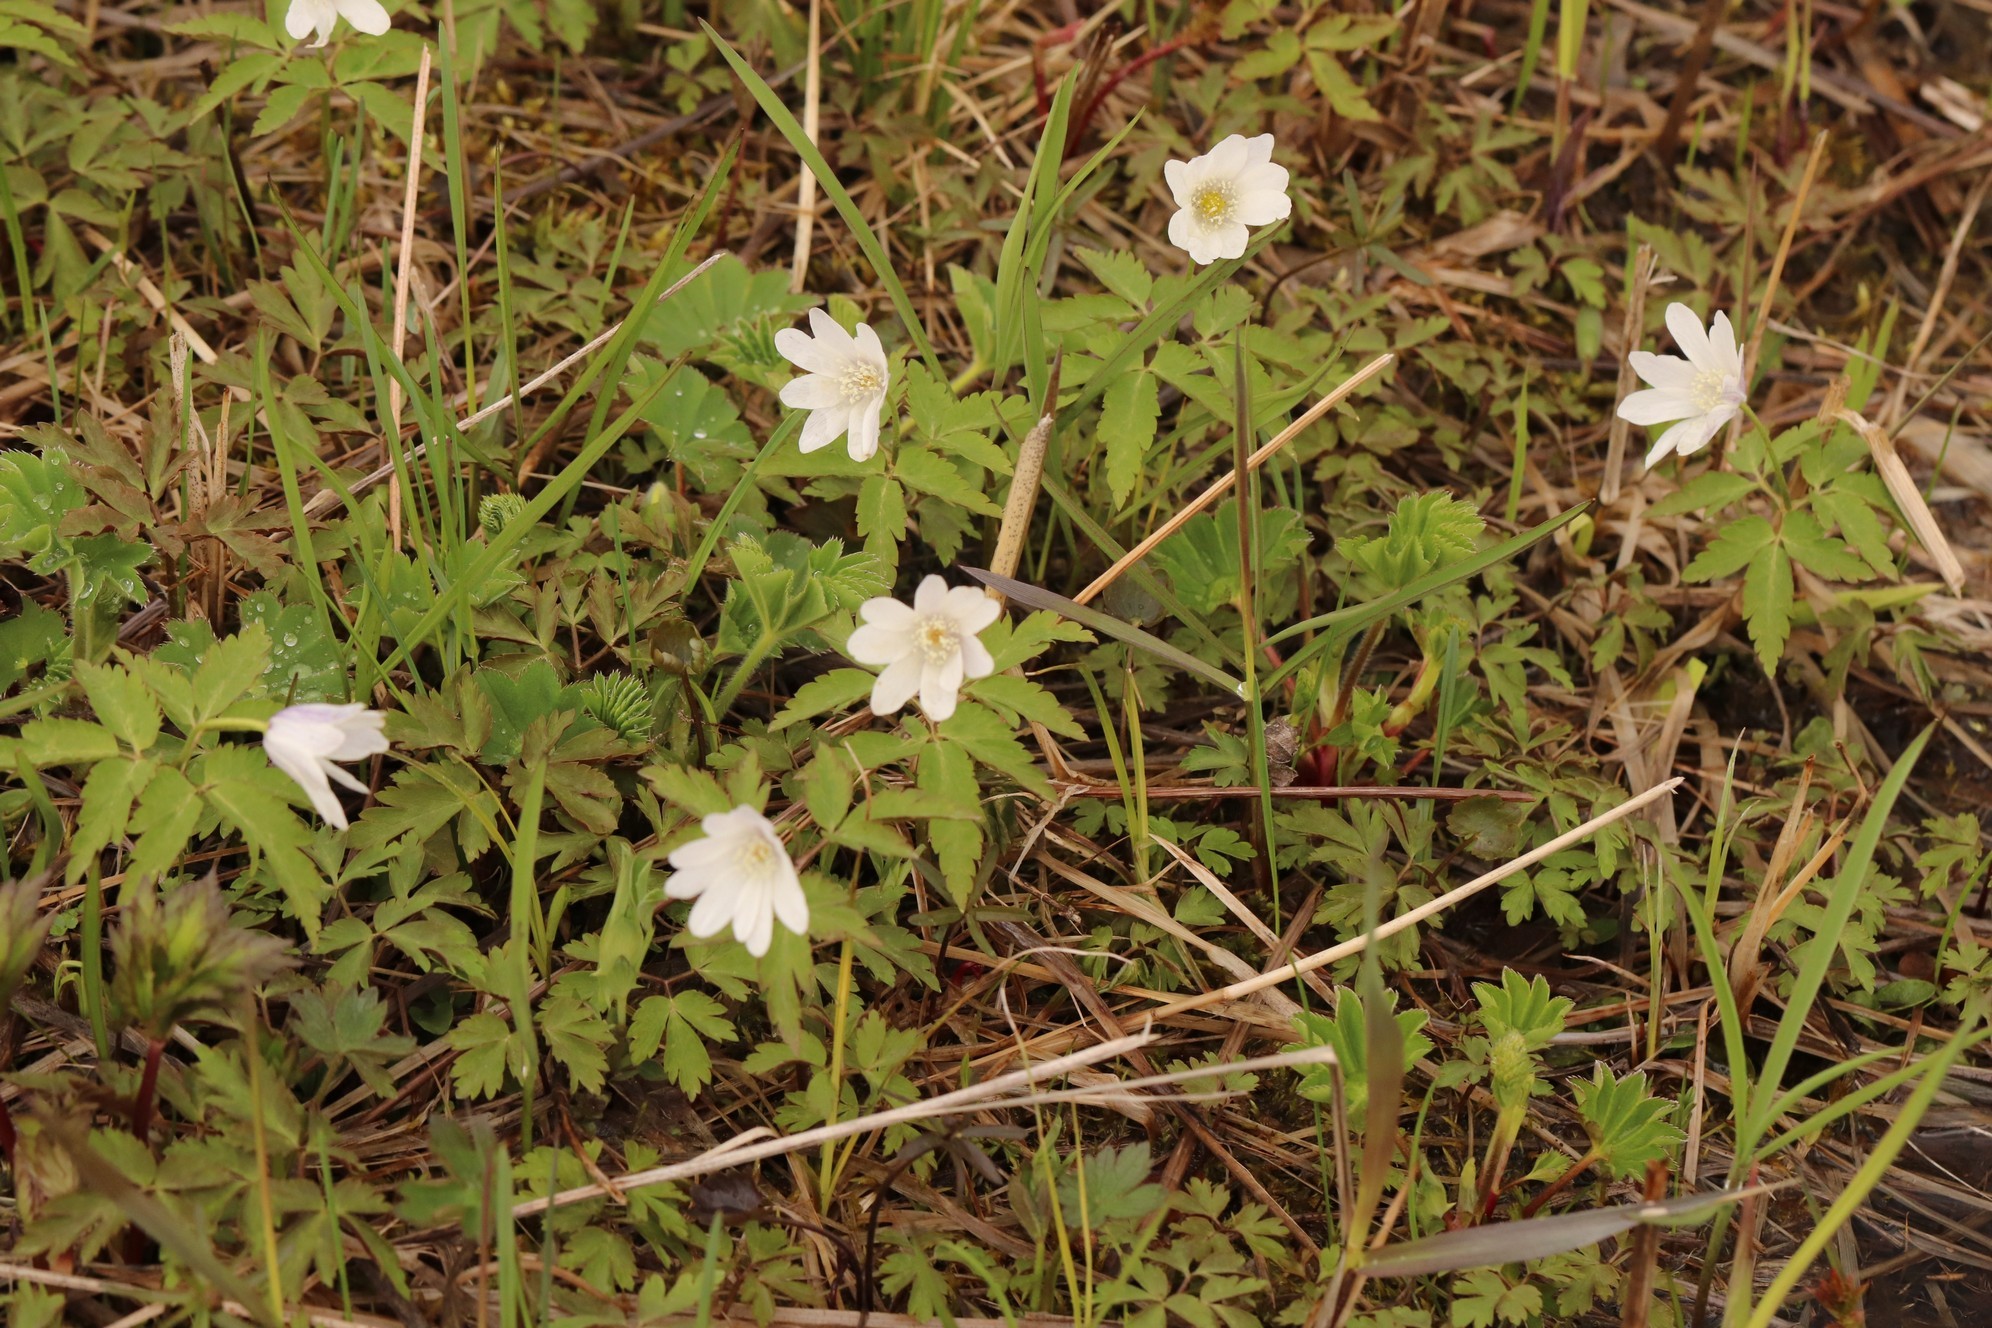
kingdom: Plantae
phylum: Tracheophyta
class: Magnoliopsida
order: Ranunculales
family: Ranunculaceae
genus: Anemone
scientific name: Anemone altaica
